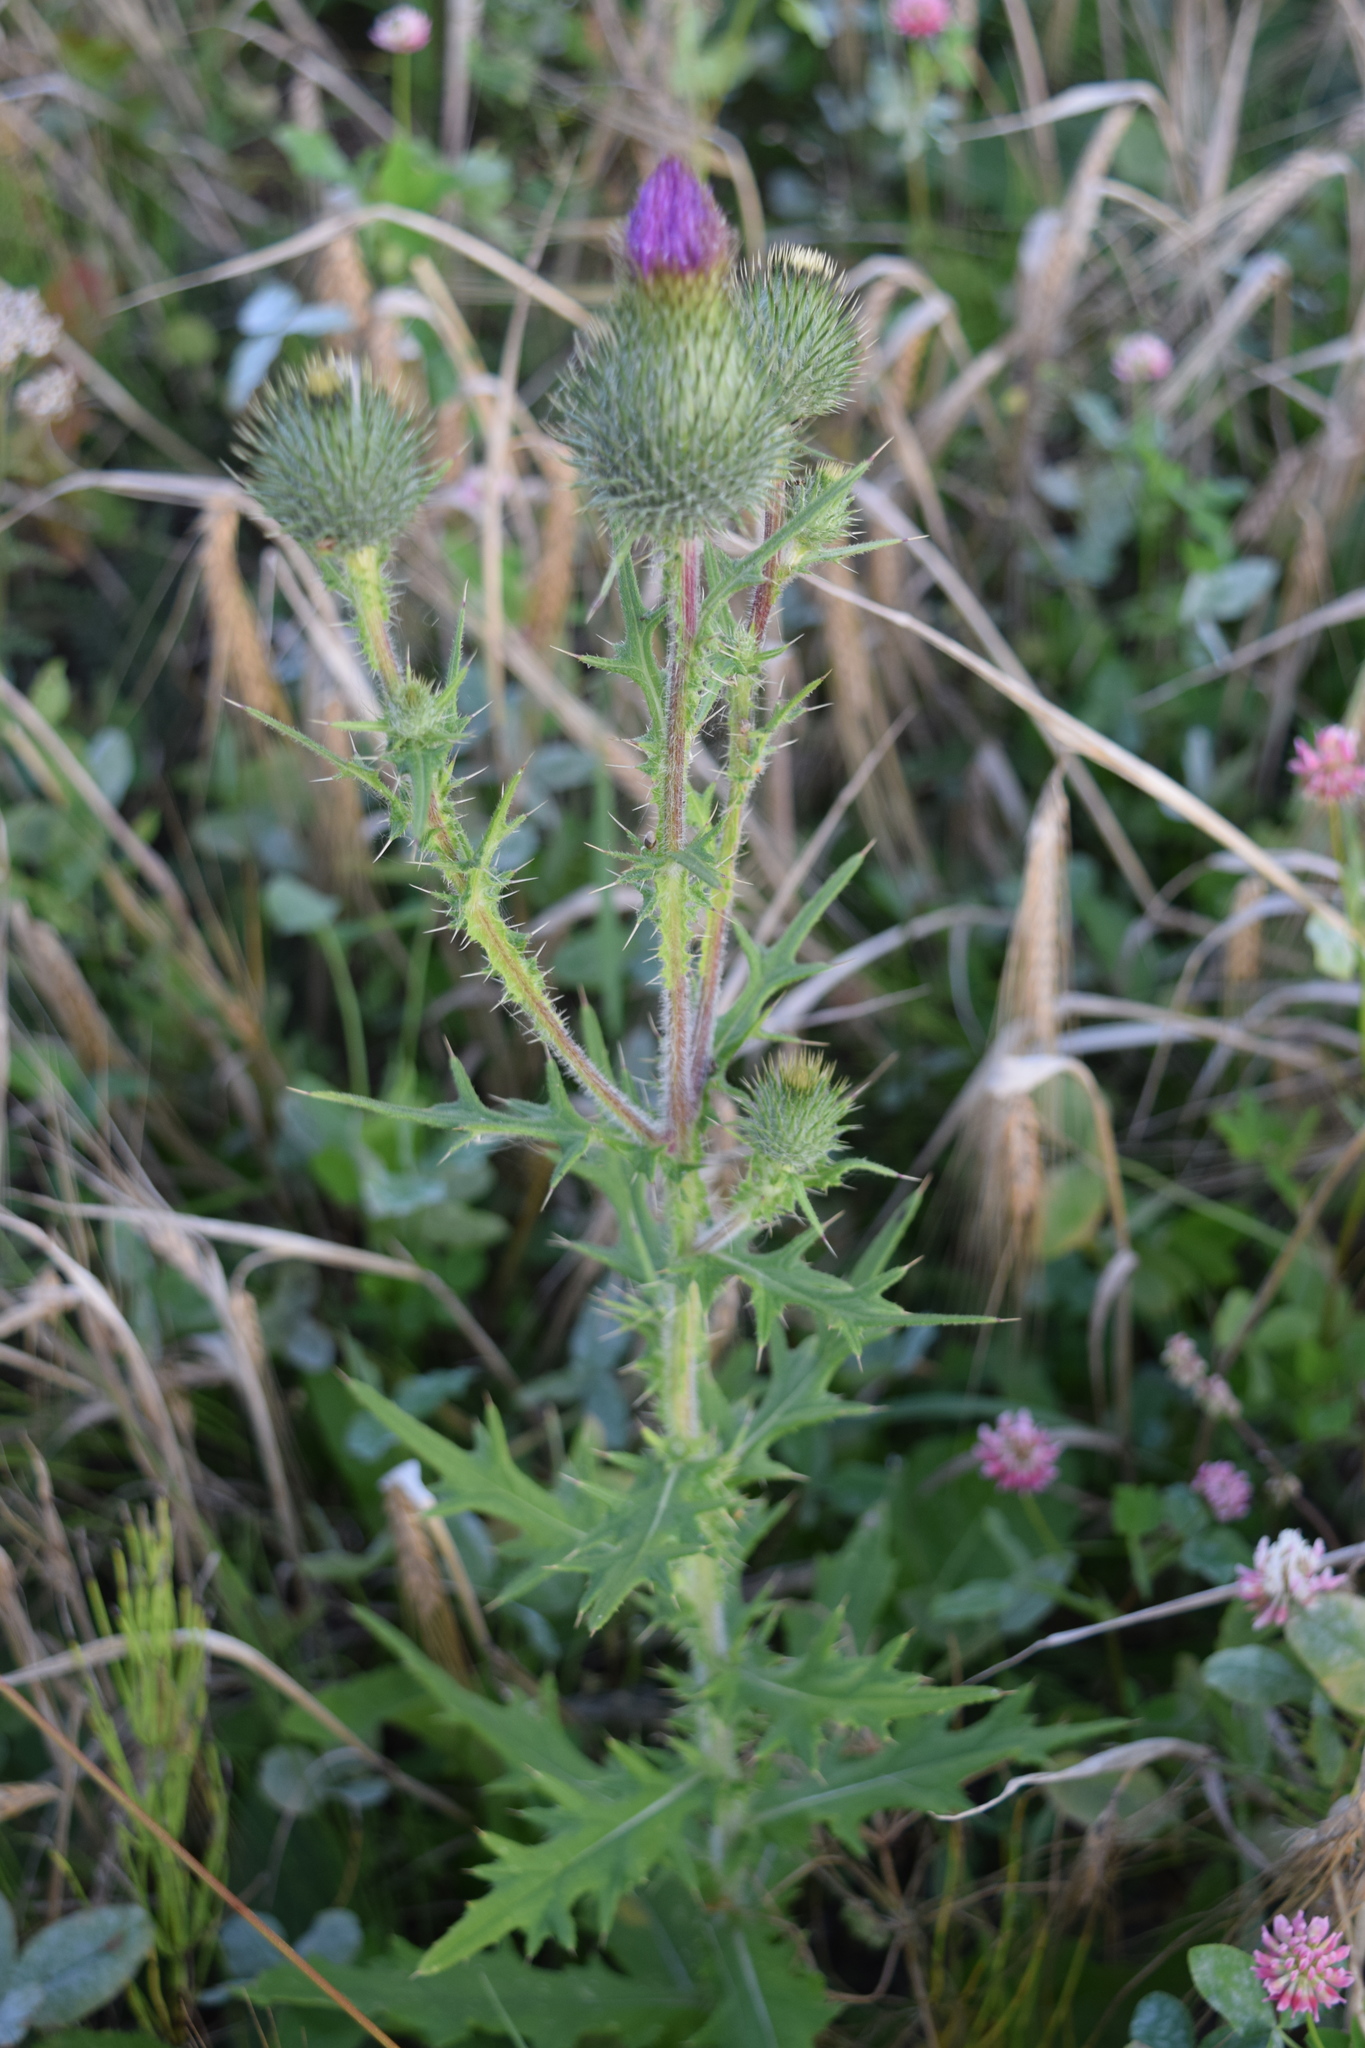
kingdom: Plantae
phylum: Tracheophyta
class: Magnoliopsida
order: Asterales
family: Asteraceae
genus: Cirsium
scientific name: Cirsium vulgare
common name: Bull thistle
